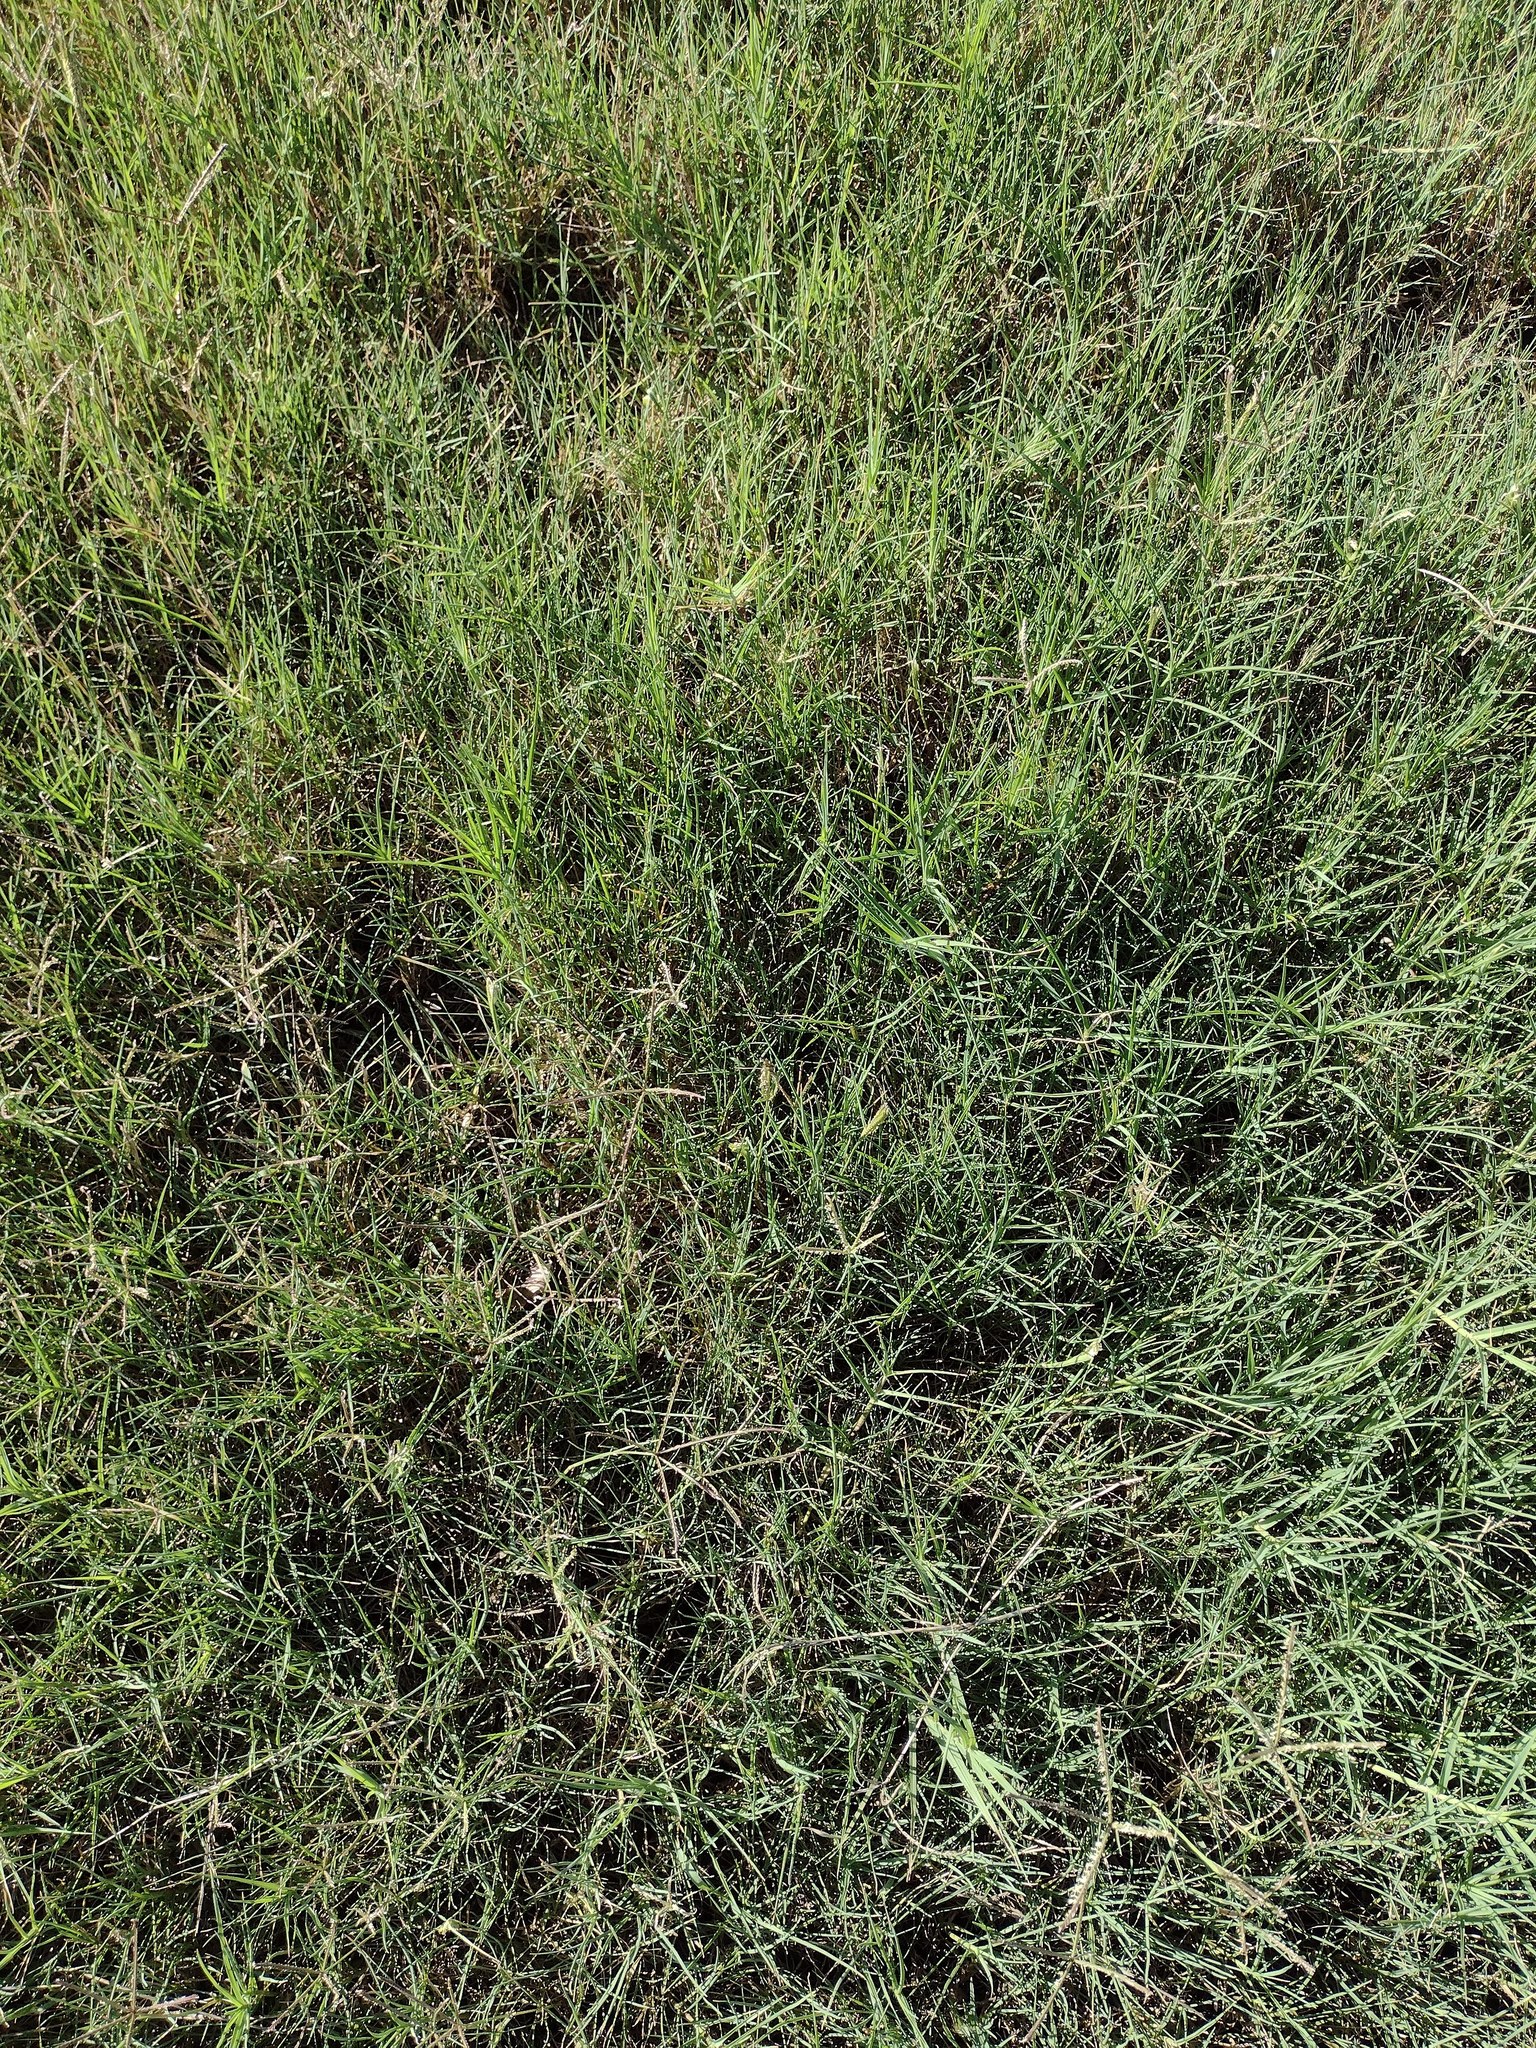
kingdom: Plantae
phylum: Tracheophyta
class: Liliopsida
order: Poales
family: Poaceae
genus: Cynodon
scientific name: Cynodon dactylon
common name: Bermuda grass
